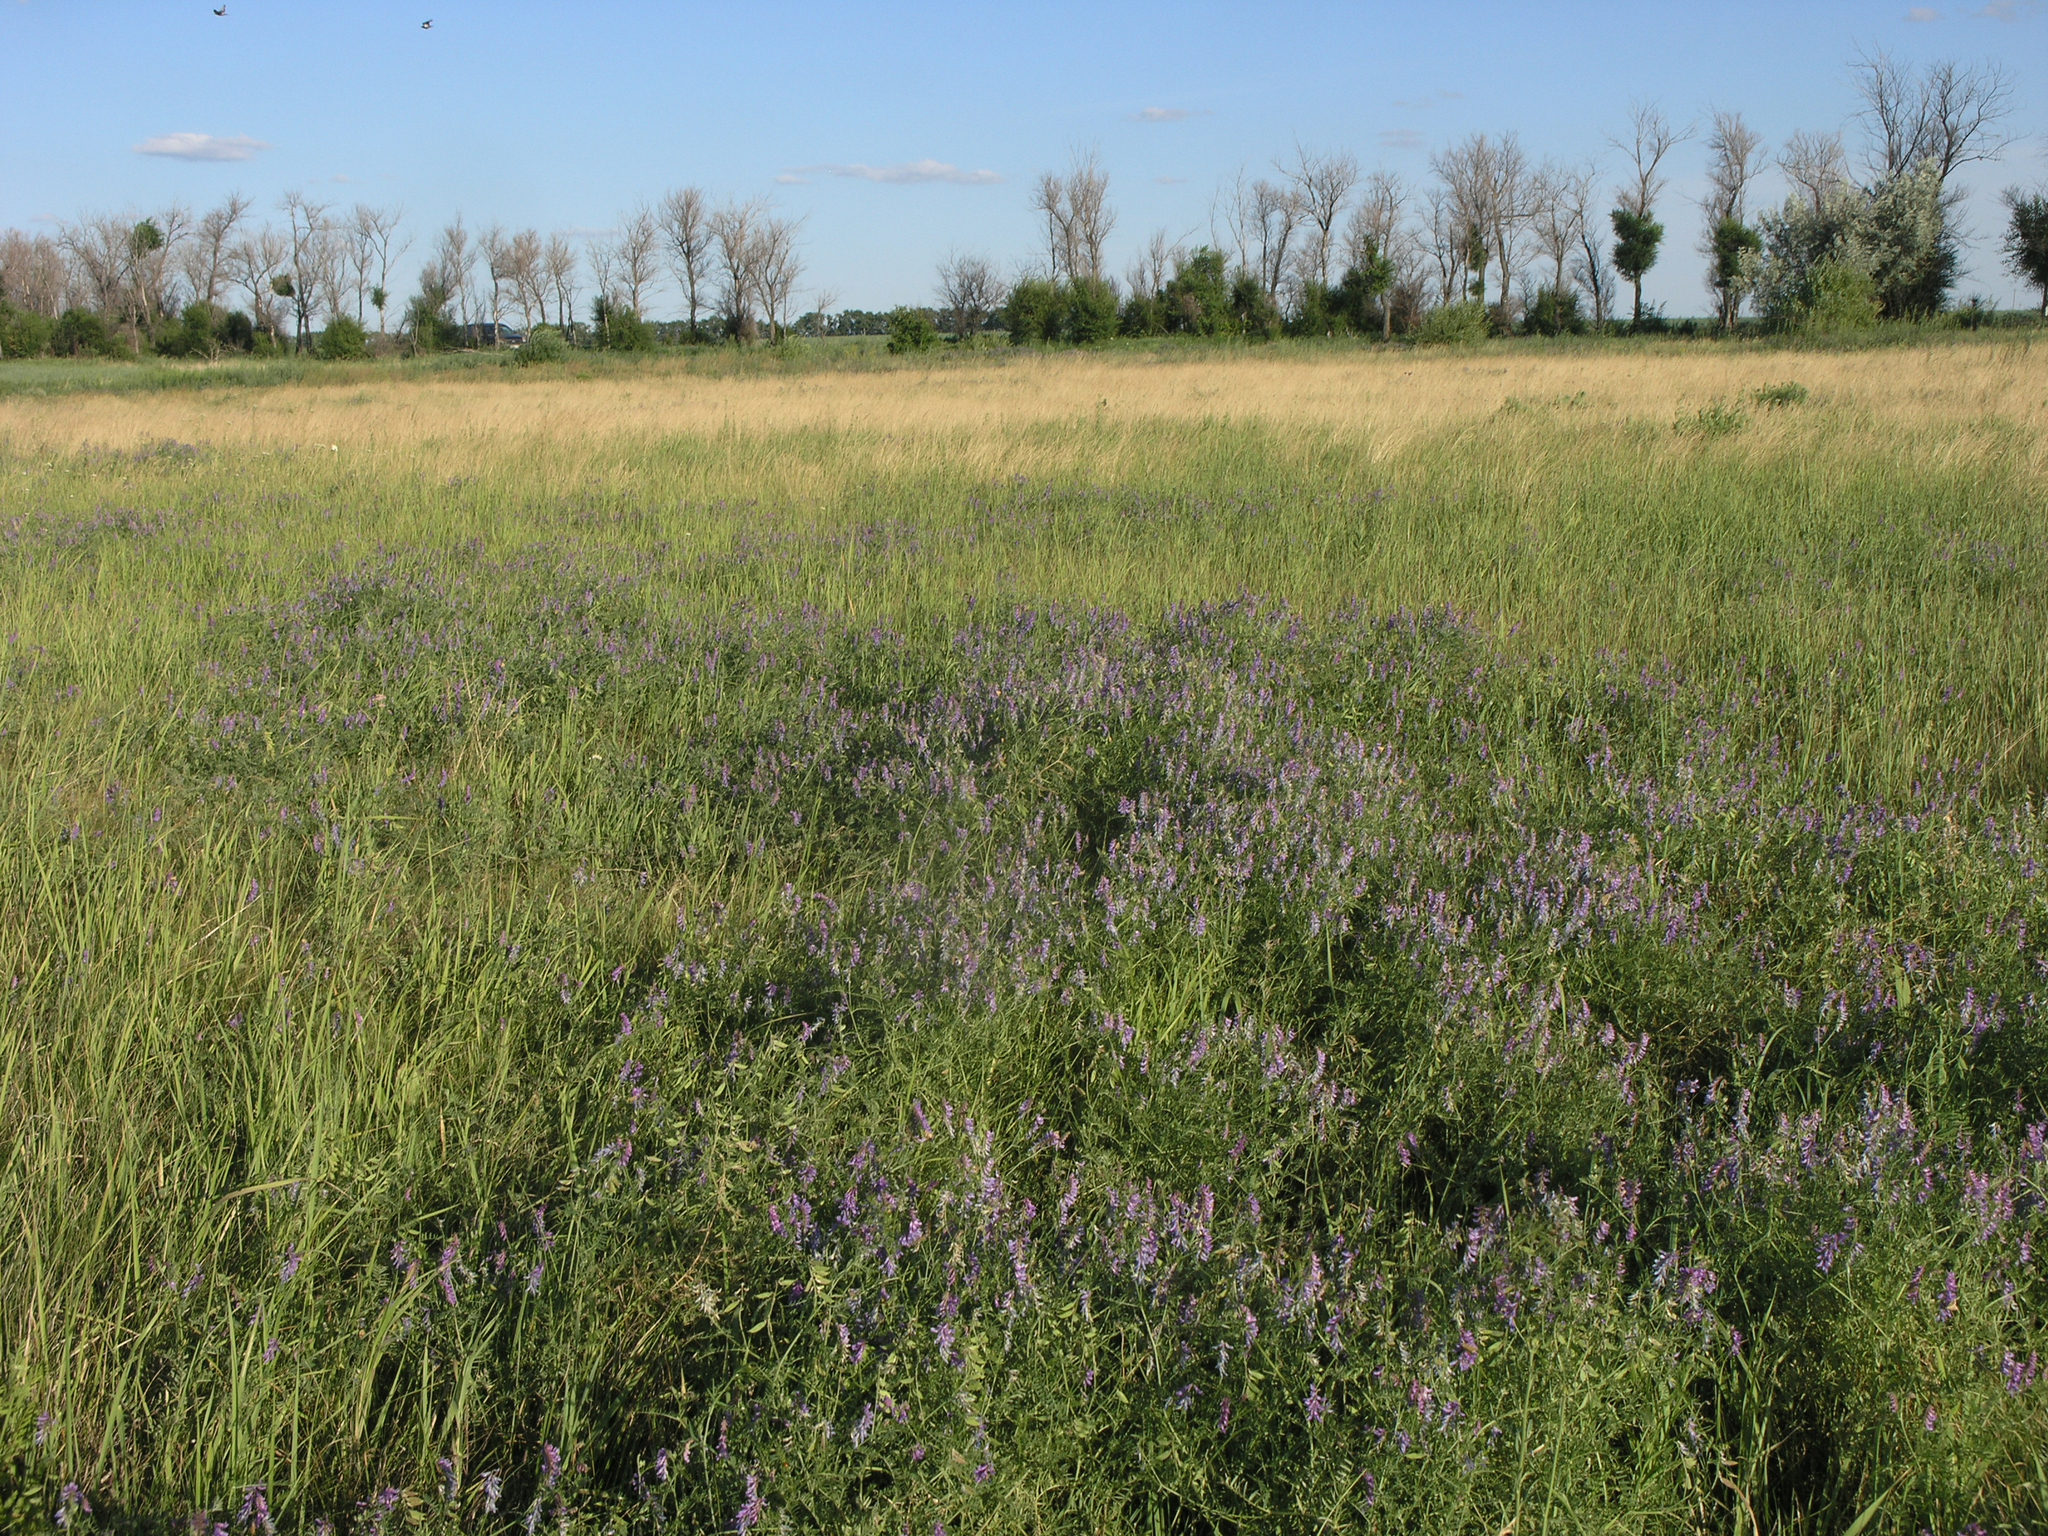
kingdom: Plantae
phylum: Tracheophyta
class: Magnoliopsida
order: Fabales
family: Fabaceae
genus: Vicia
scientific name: Vicia cracca
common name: Bird vetch
